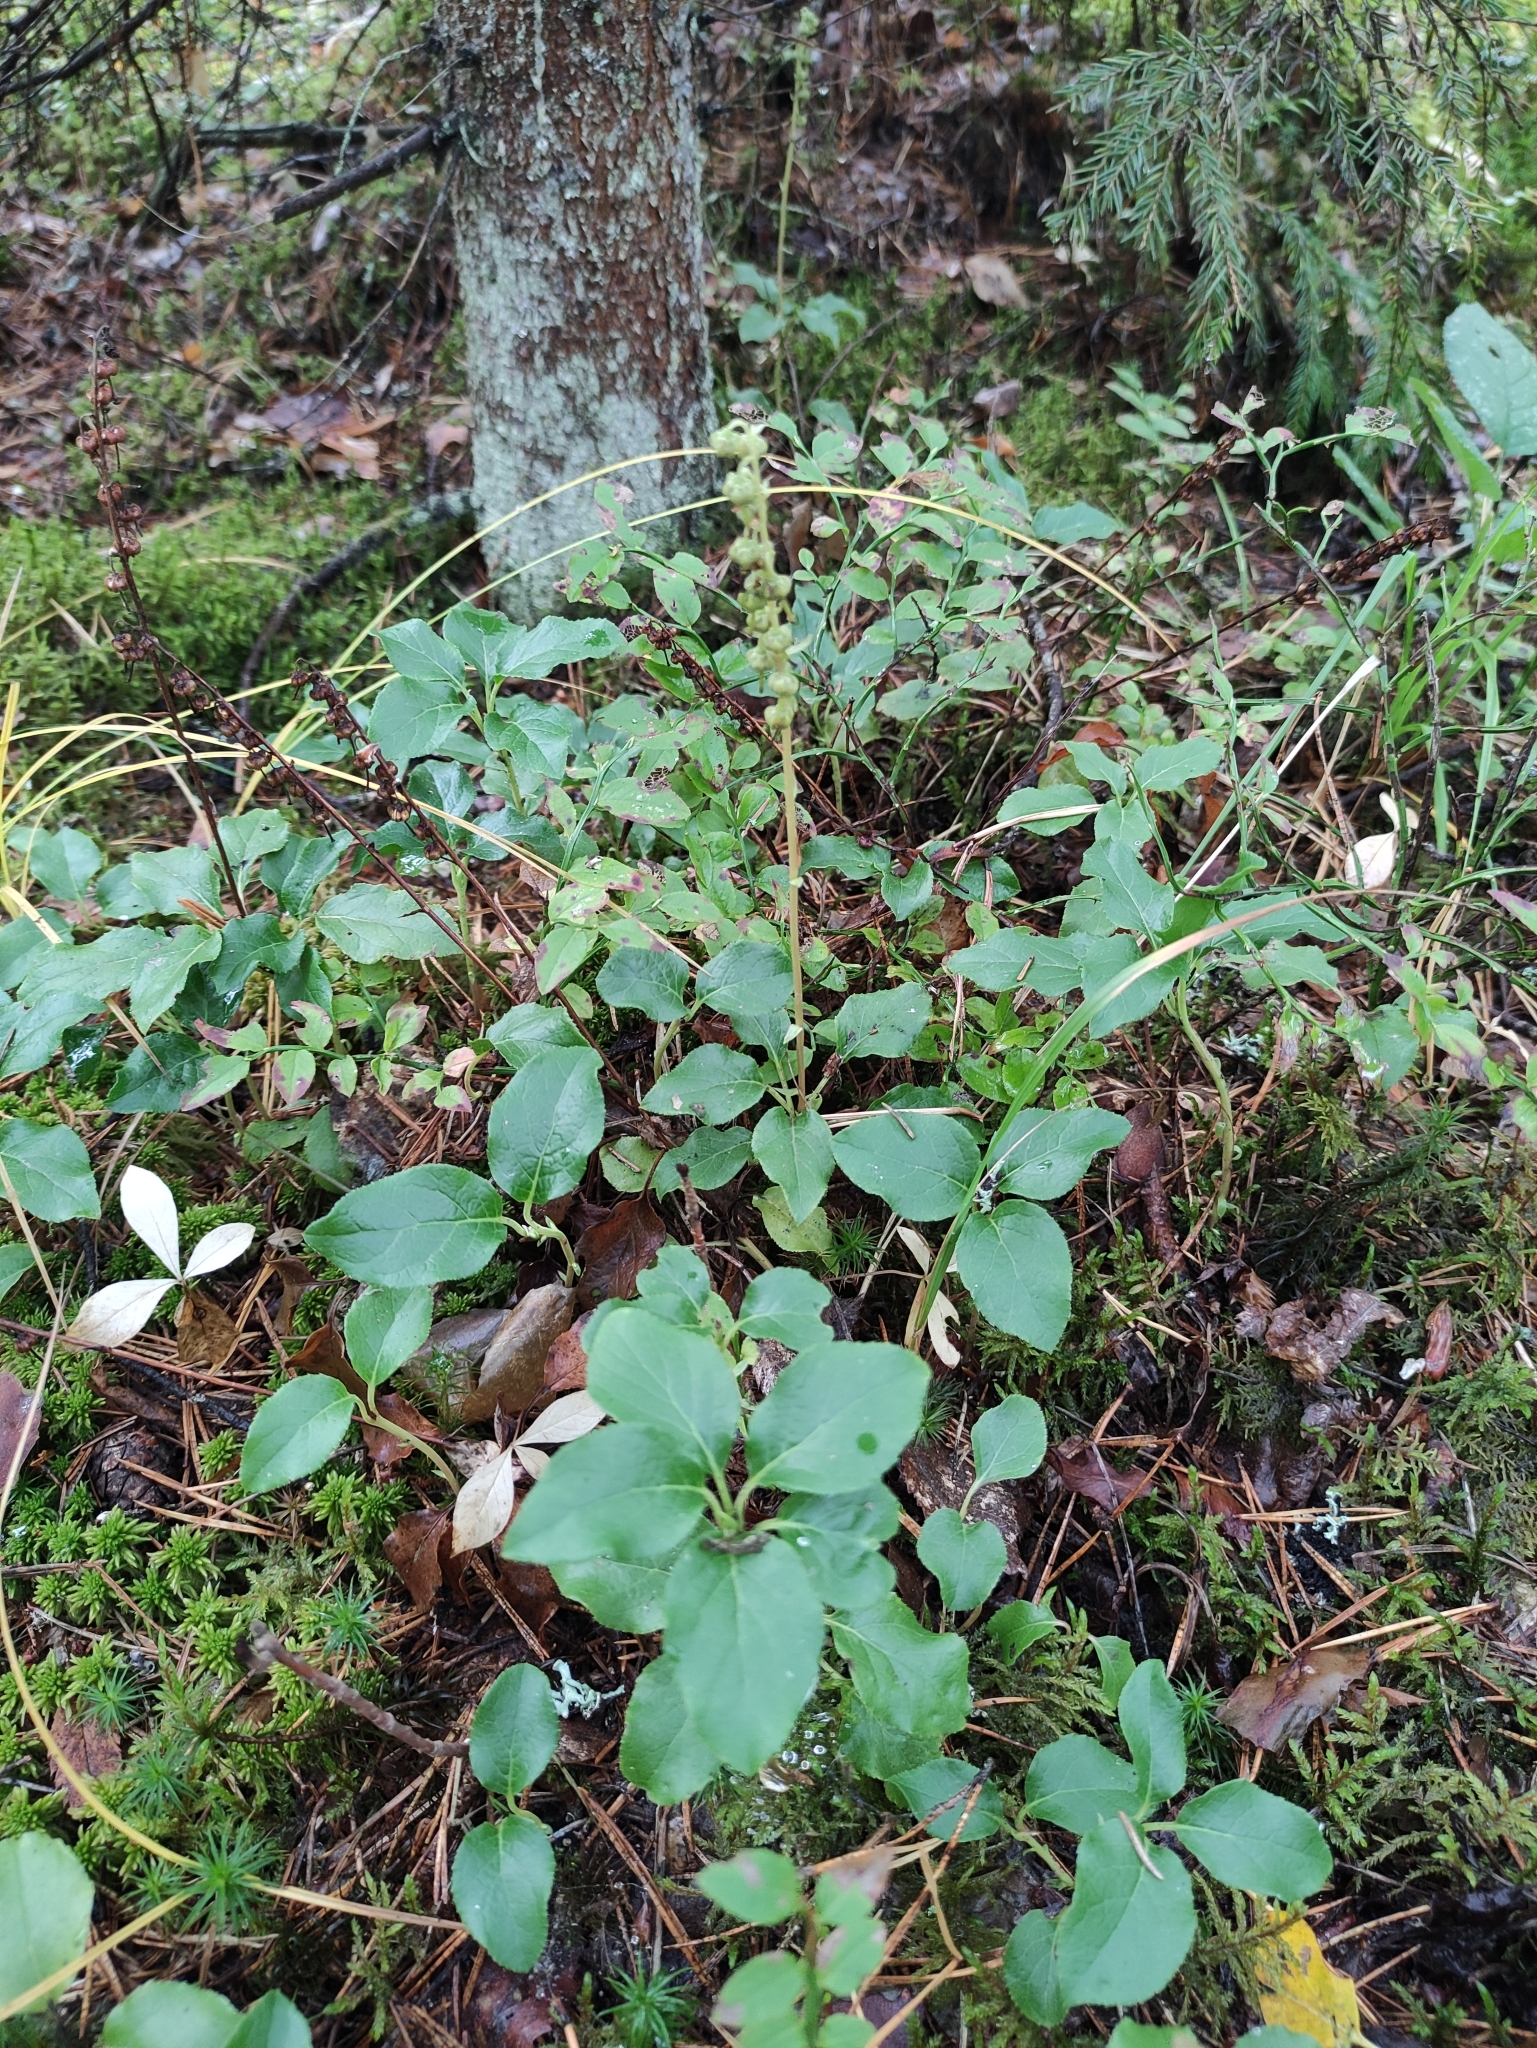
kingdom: Plantae
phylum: Tracheophyta
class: Magnoliopsida
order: Ericales
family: Ericaceae
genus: Orthilia
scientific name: Orthilia secunda
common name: One-sided orthilia
